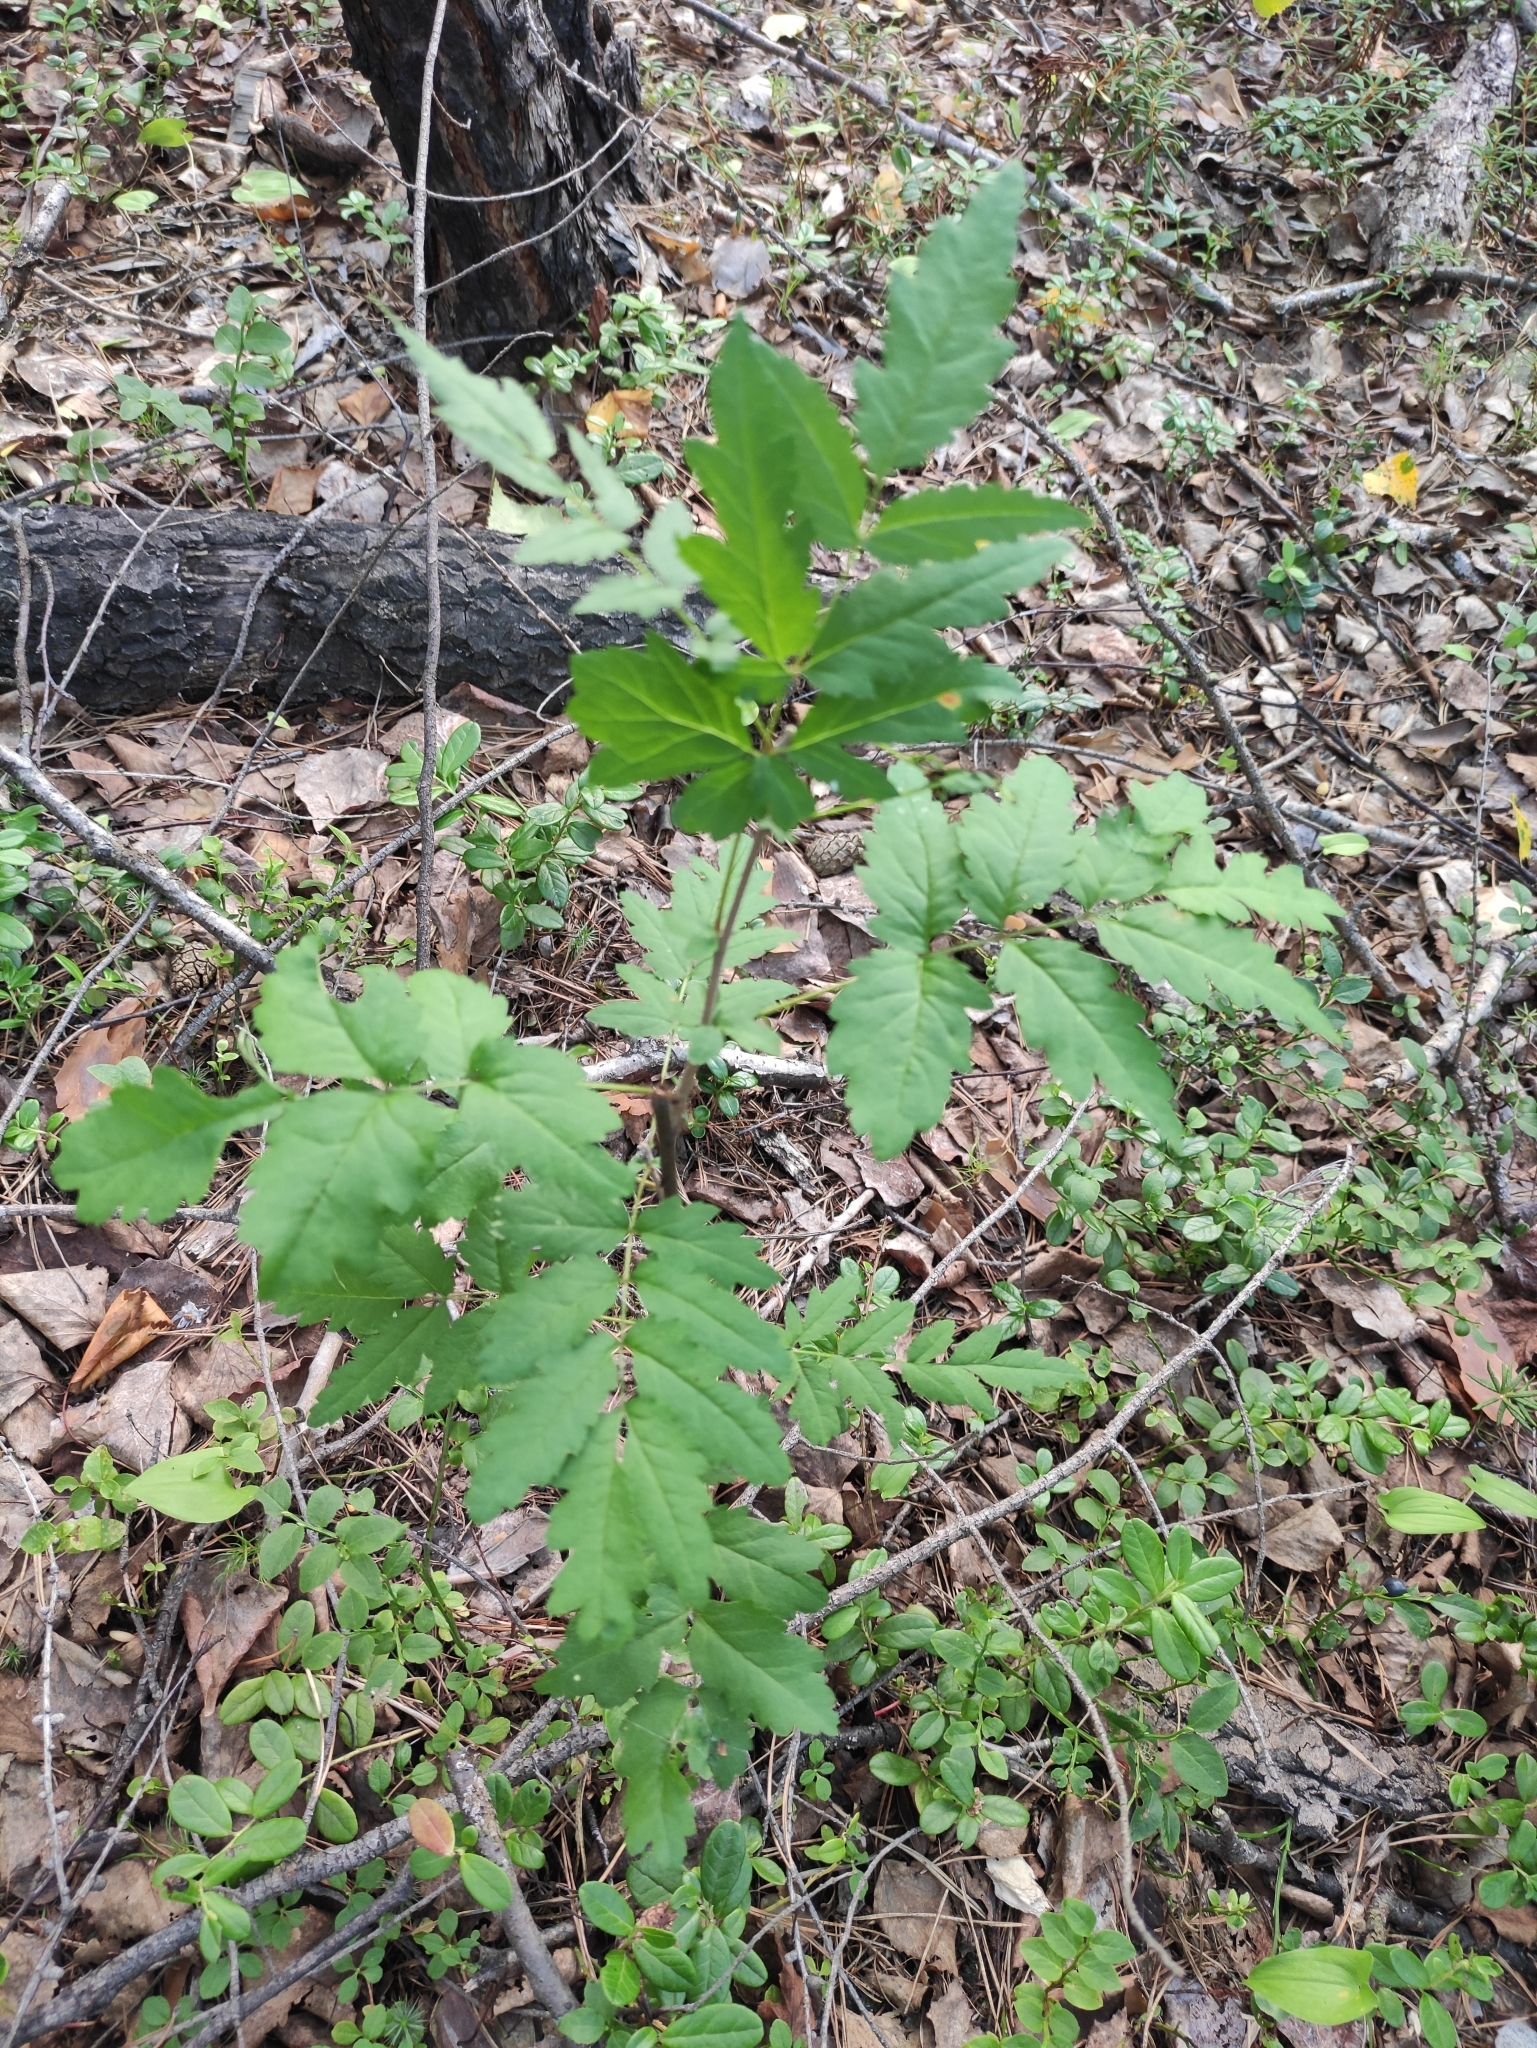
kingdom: Plantae
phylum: Tracheophyta
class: Magnoliopsida
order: Rosales
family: Rosaceae
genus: Sorbus
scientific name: Sorbus aucuparia
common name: Rowan
